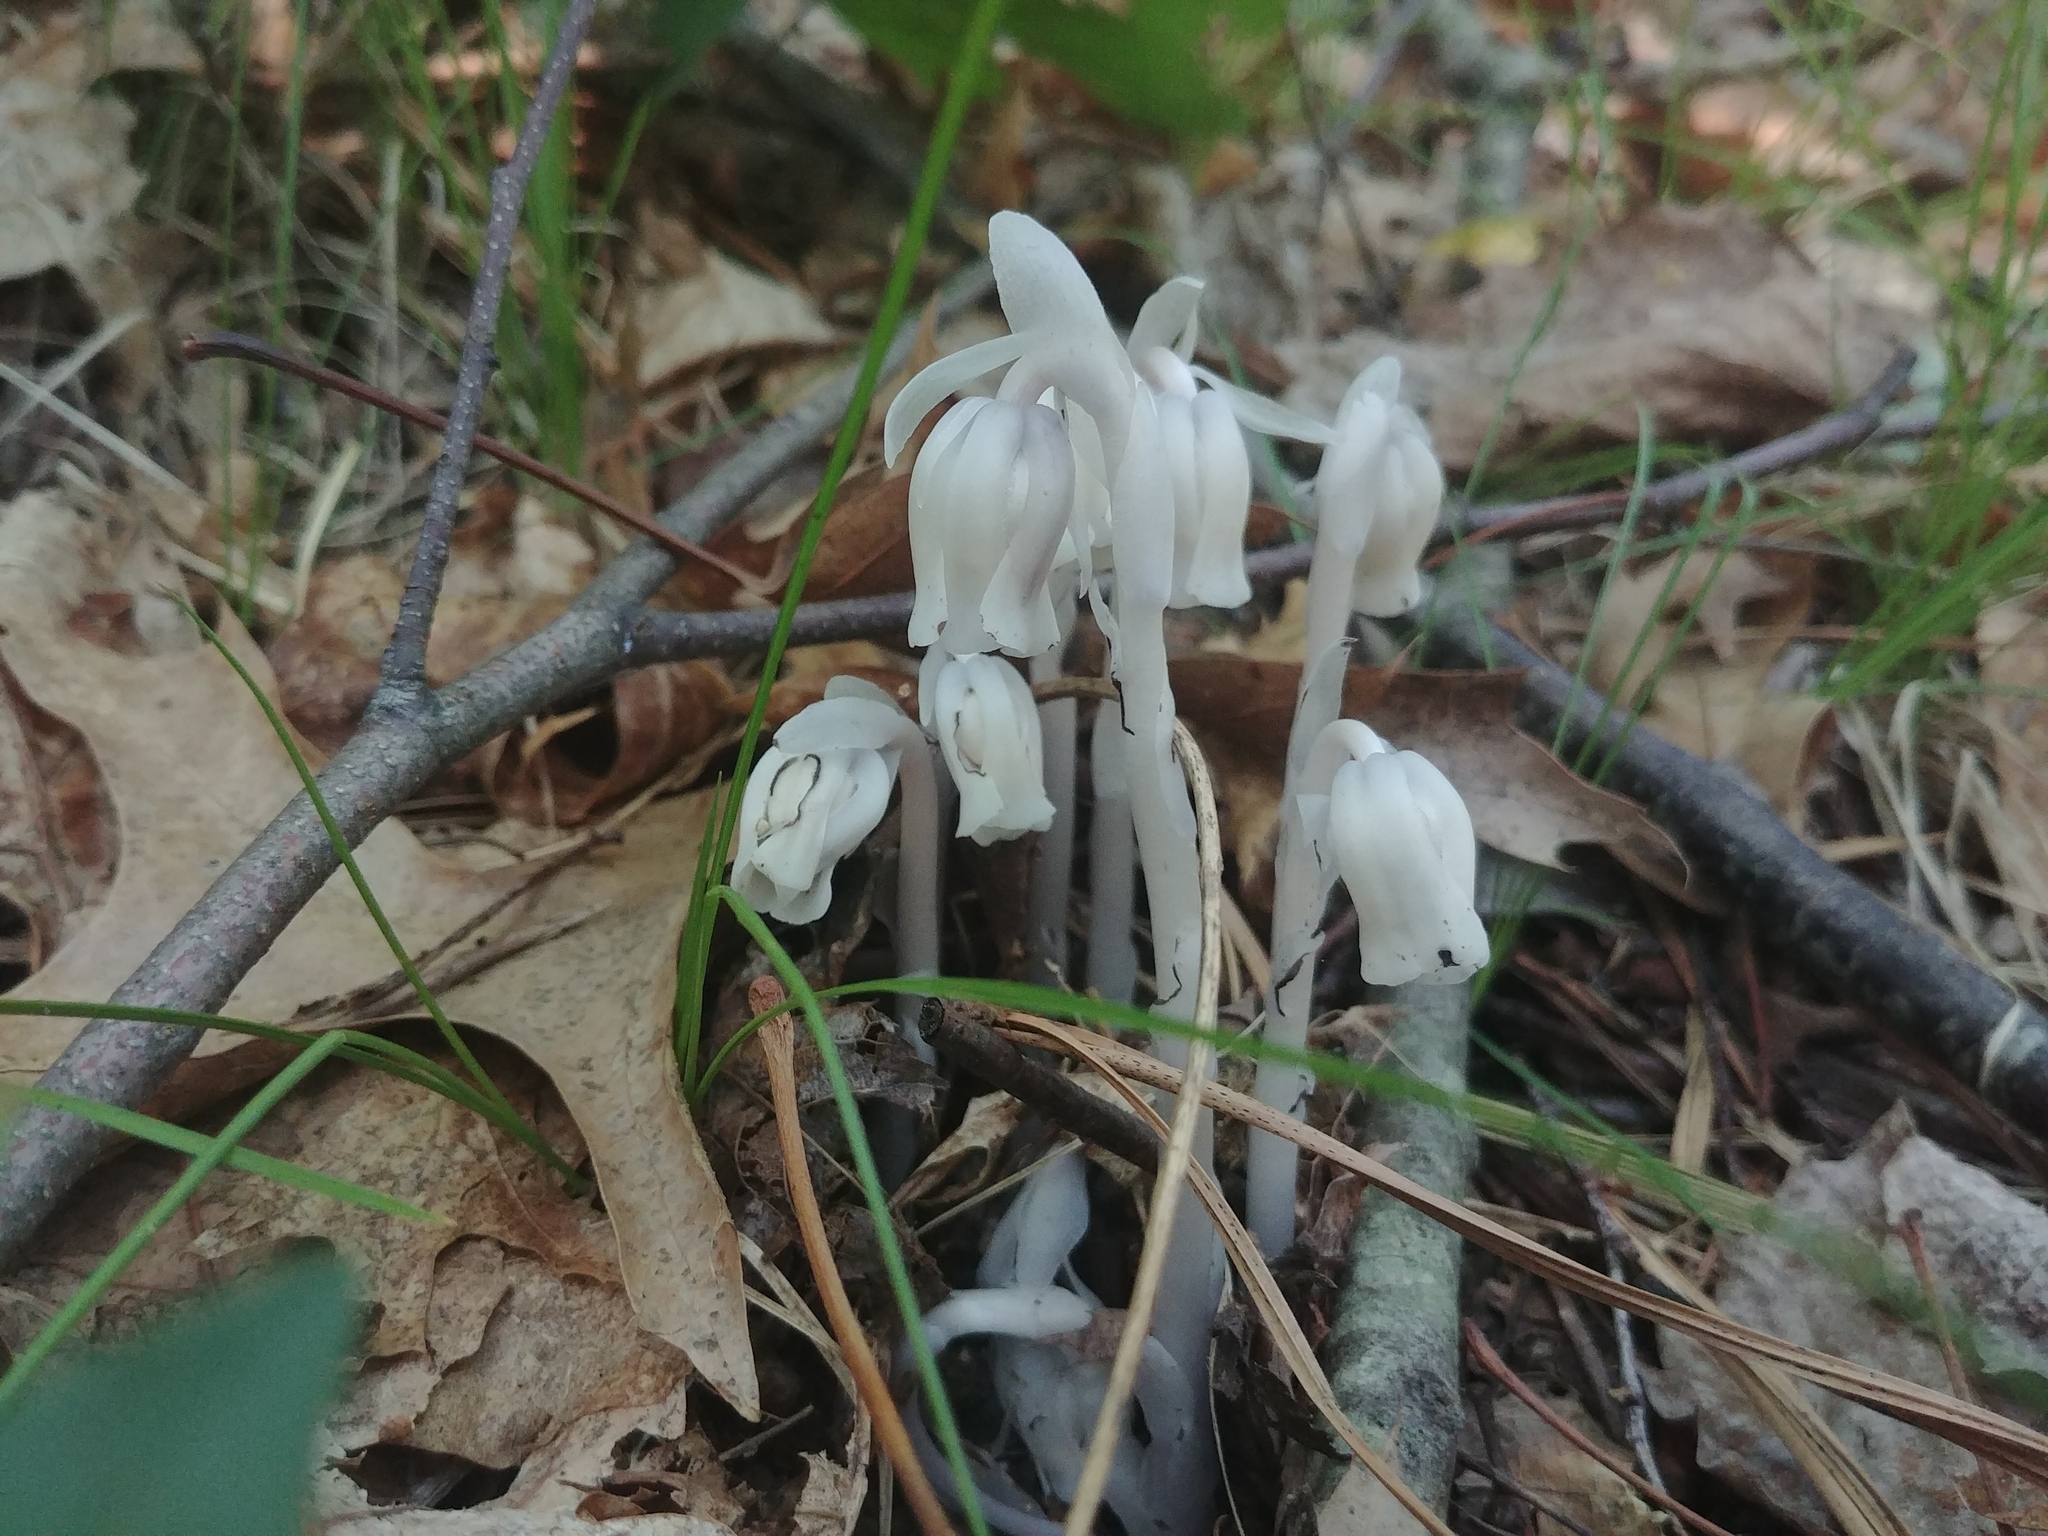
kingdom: Plantae
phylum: Tracheophyta
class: Magnoliopsida
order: Ericales
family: Ericaceae
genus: Monotropa
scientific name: Monotropa uniflora
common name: Convulsion root
